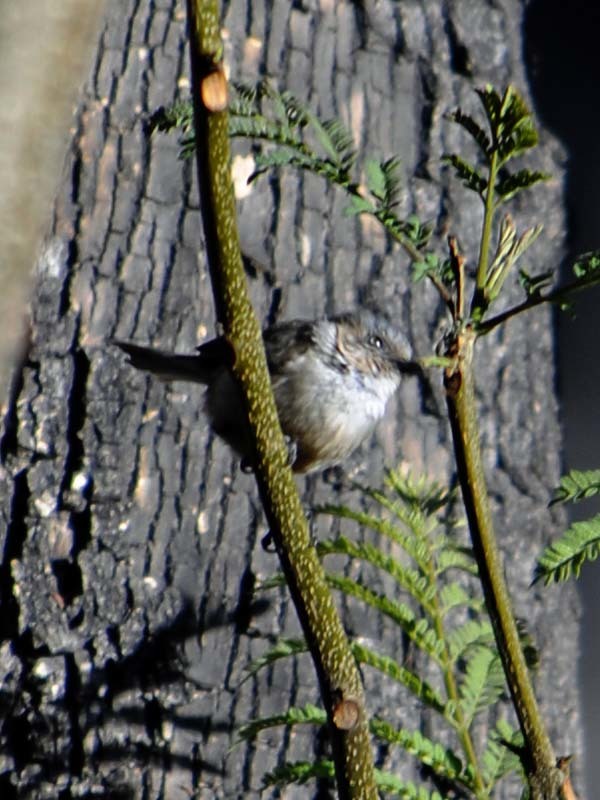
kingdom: Animalia
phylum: Chordata
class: Aves
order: Passeriformes
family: Aegithalidae
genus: Psaltriparus
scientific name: Psaltriparus minimus
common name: American bushtit
